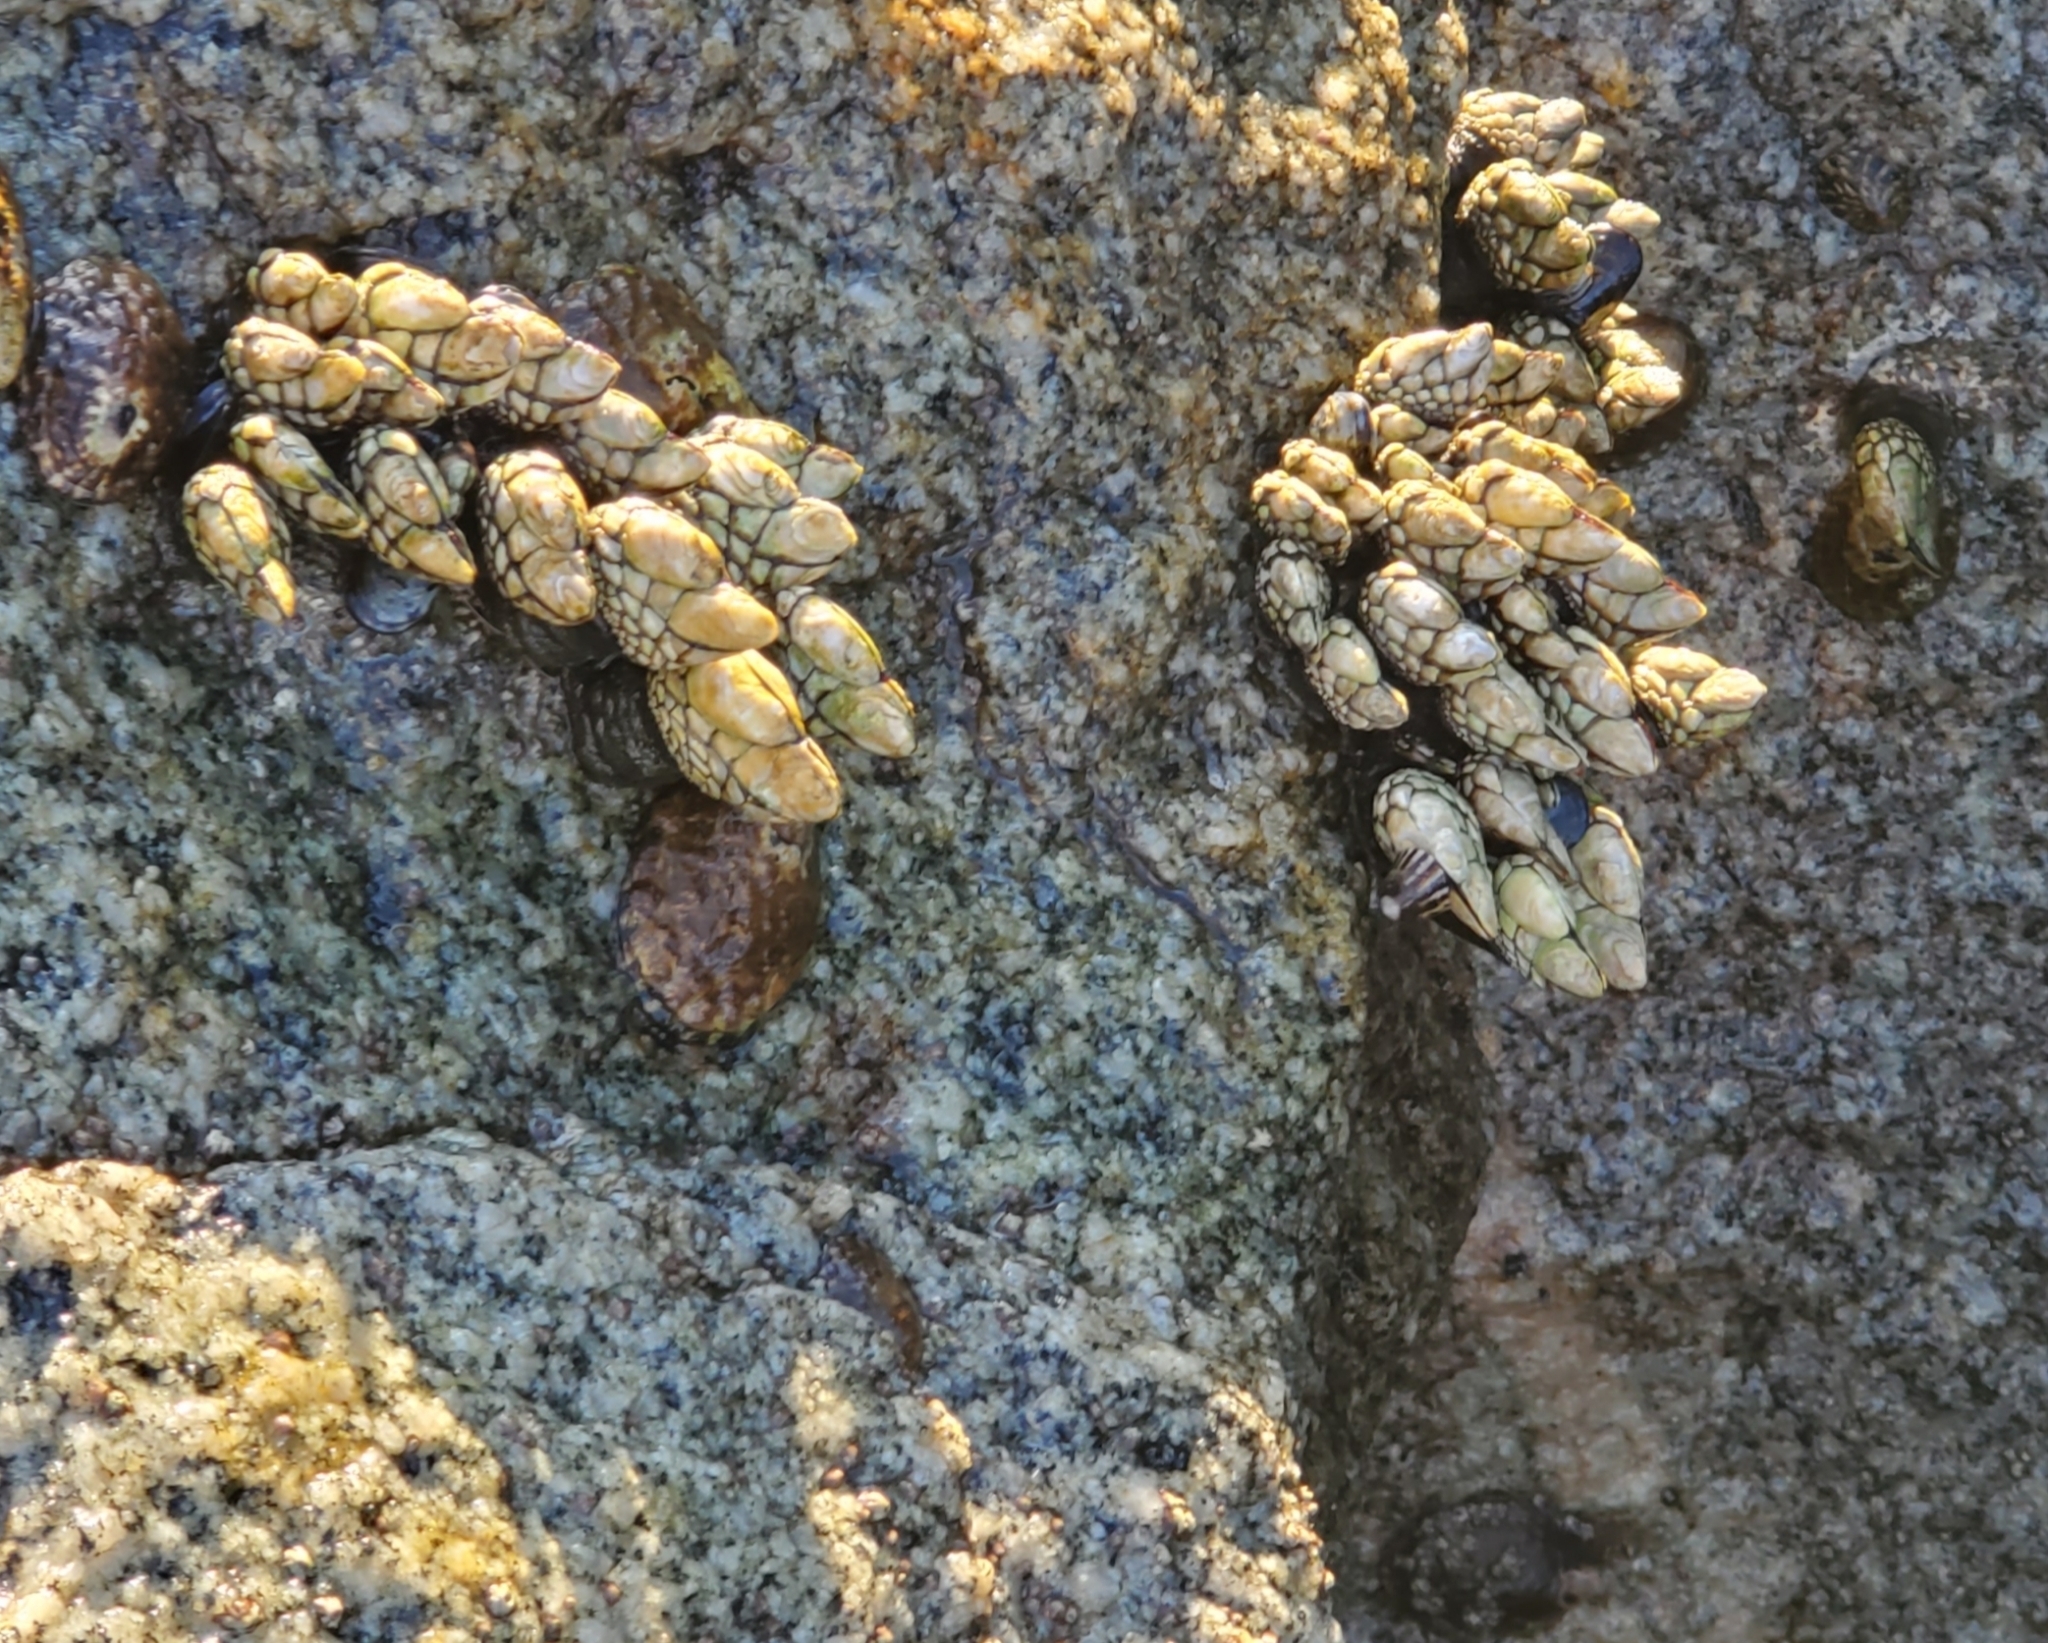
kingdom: Animalia
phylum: Arthropoda
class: Maxillopoda
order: Pedunculata
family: Pollicipedidae
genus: Pollicipes
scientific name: Pollicipes polymerus
